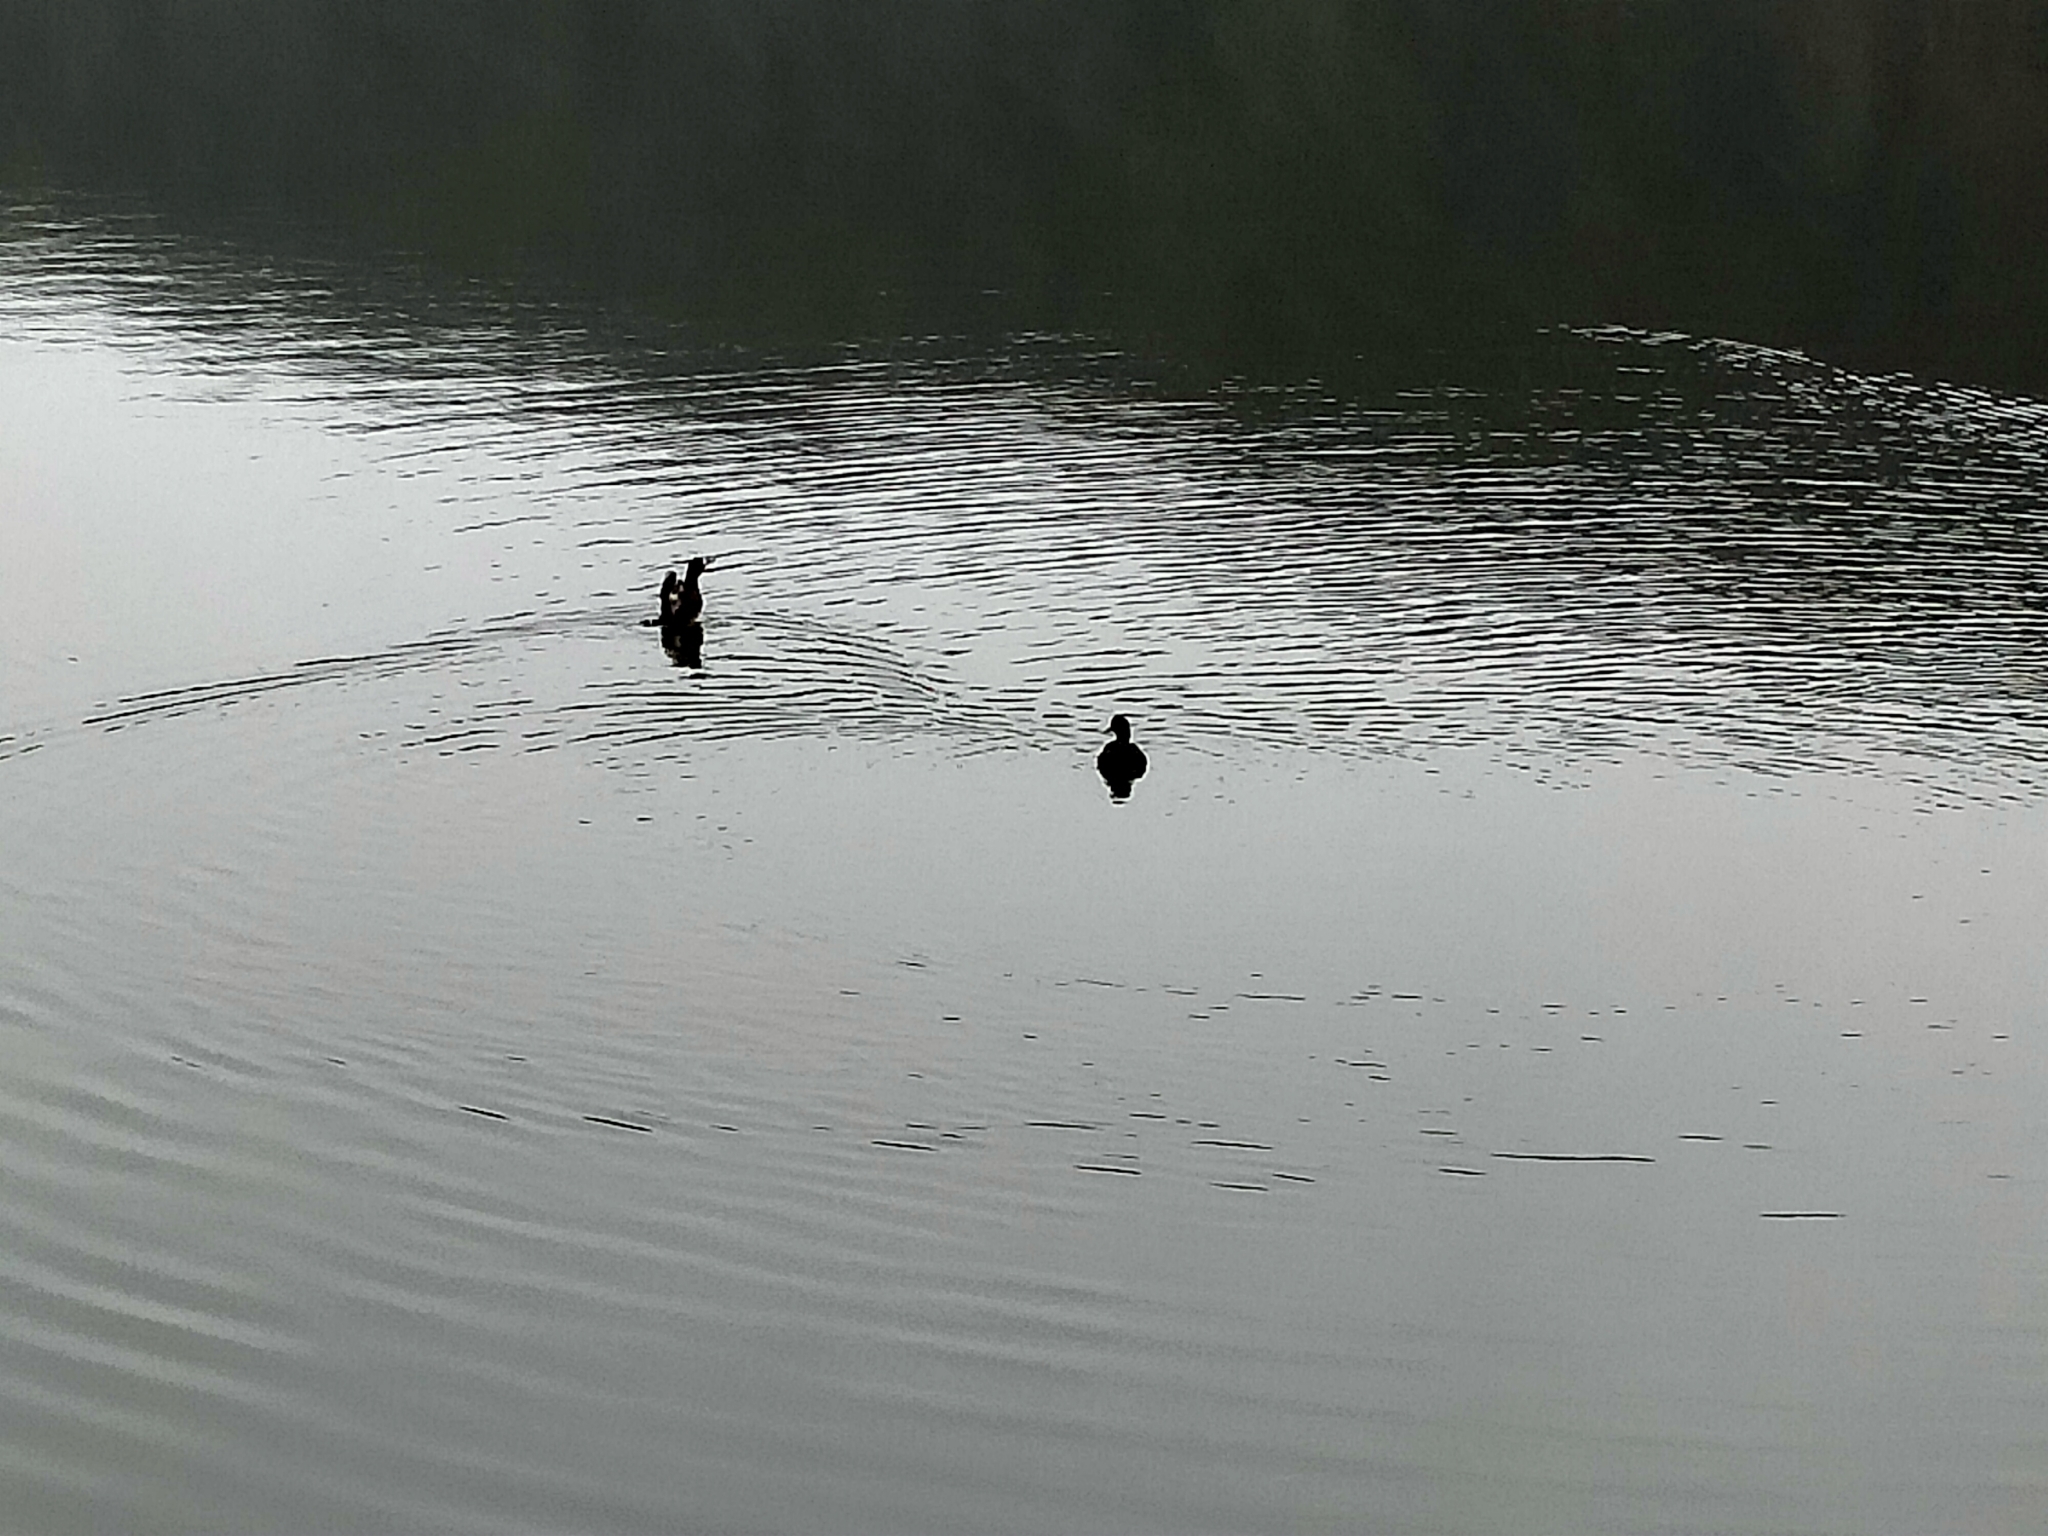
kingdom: Animalia
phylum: Chordata
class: Aves
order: Anseriformes
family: Anatidae
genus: Aythya
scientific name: Aythya novaeseelandiae
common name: New zealand scaup
